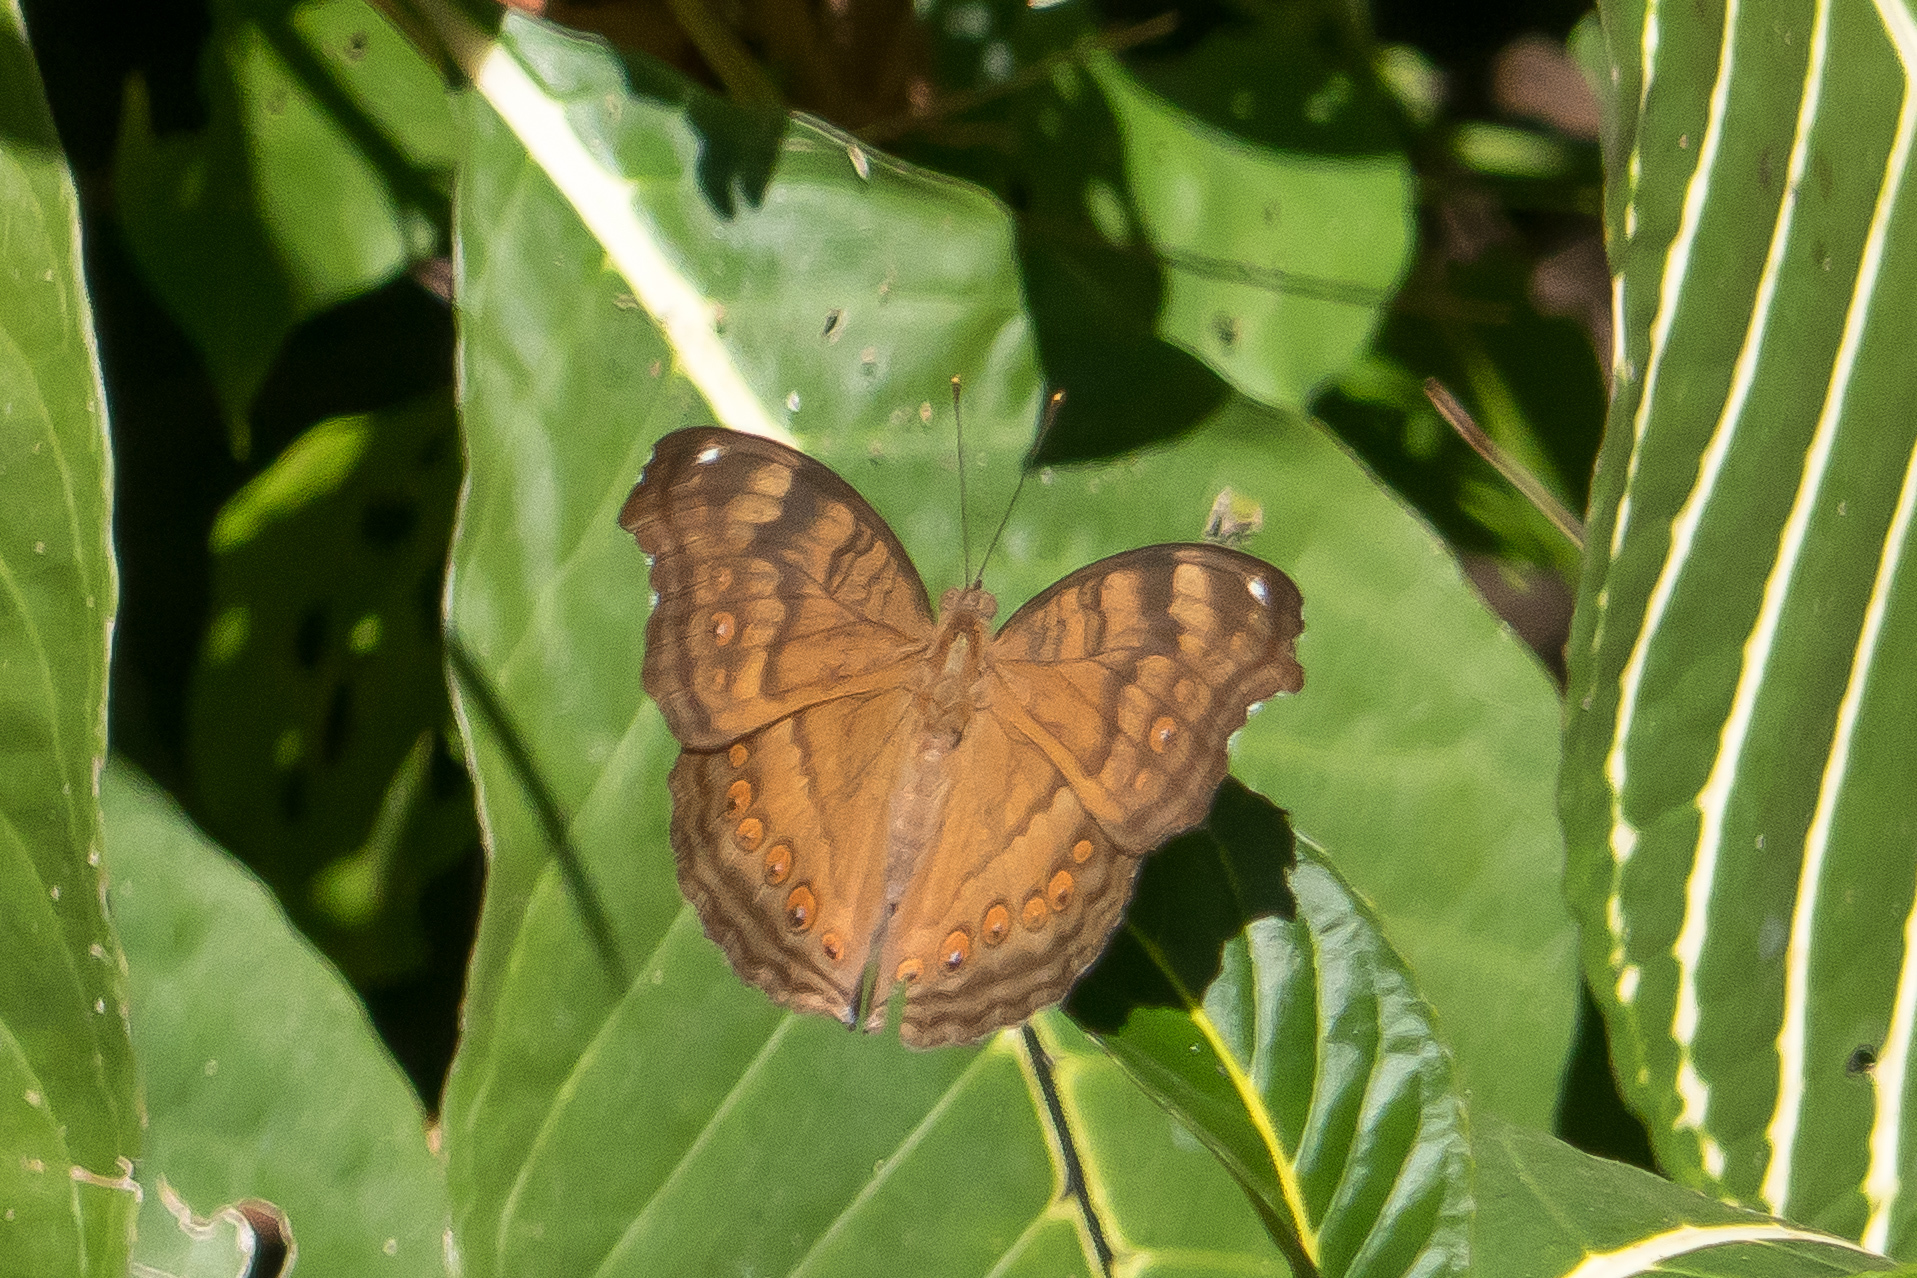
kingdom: Animalia
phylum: Arthropoda
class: Insecta
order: Lepidoptera
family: Nymphalidae
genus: Junonia
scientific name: Junonia hedonia
